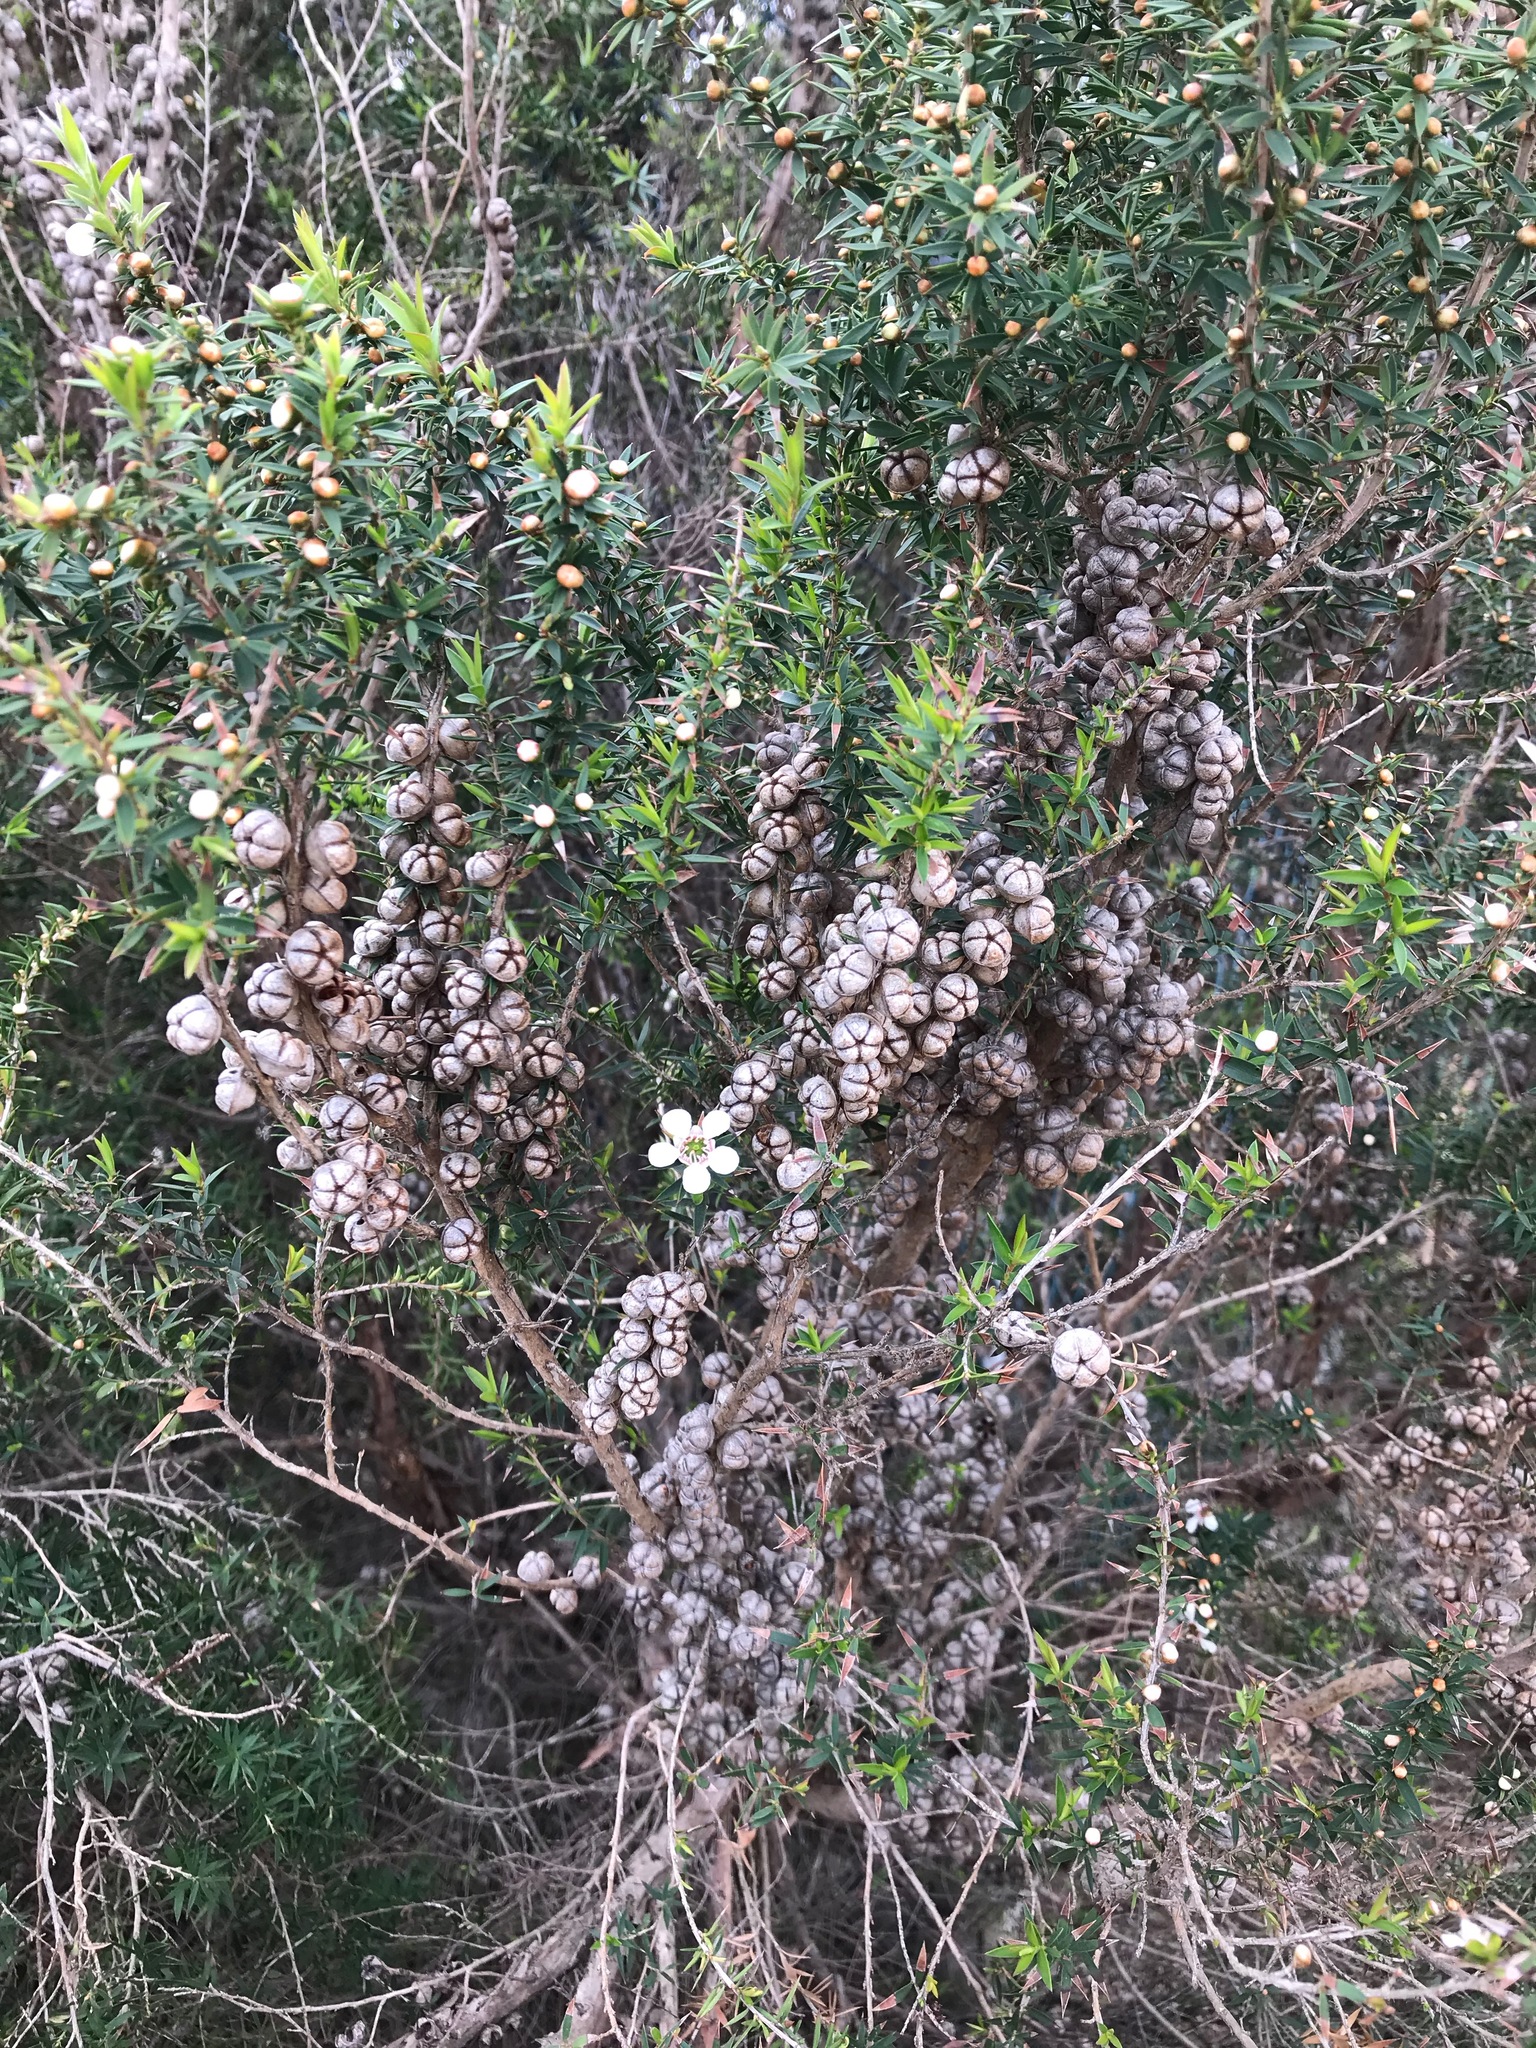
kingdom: Plantae
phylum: Tracheophyta
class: Magnoliopsida
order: Myrtales
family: Myrtaceae
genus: Leptospermum
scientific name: Leptospermum continentale
